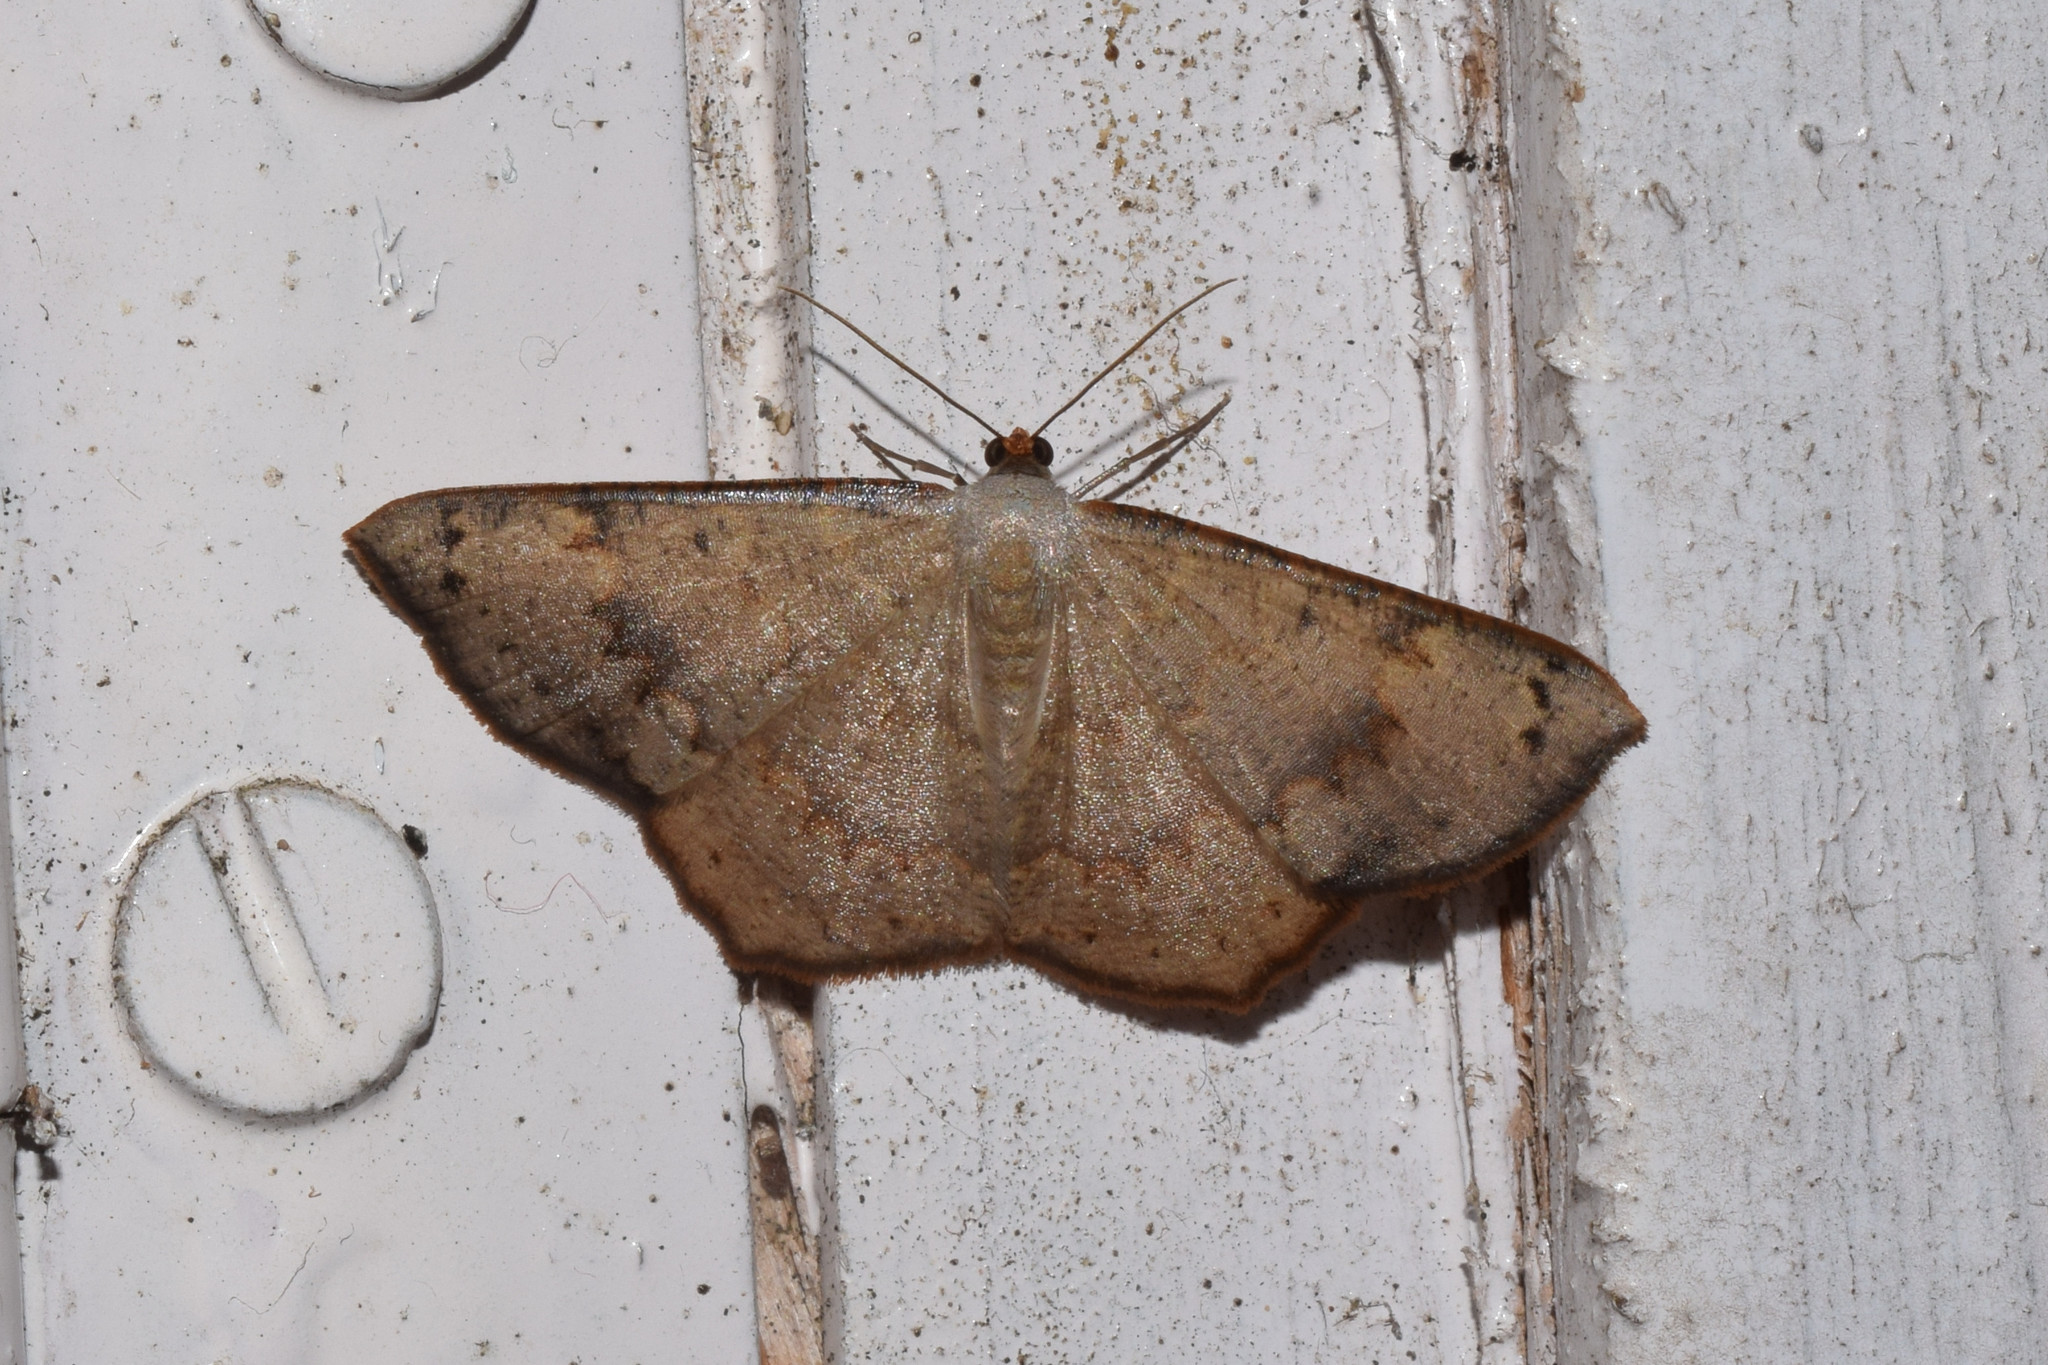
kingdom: Animalia
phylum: Arthropoda
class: Insecta
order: Lepidoptera
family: Geometridae
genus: Peratostega
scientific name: Peratostega deletaria
